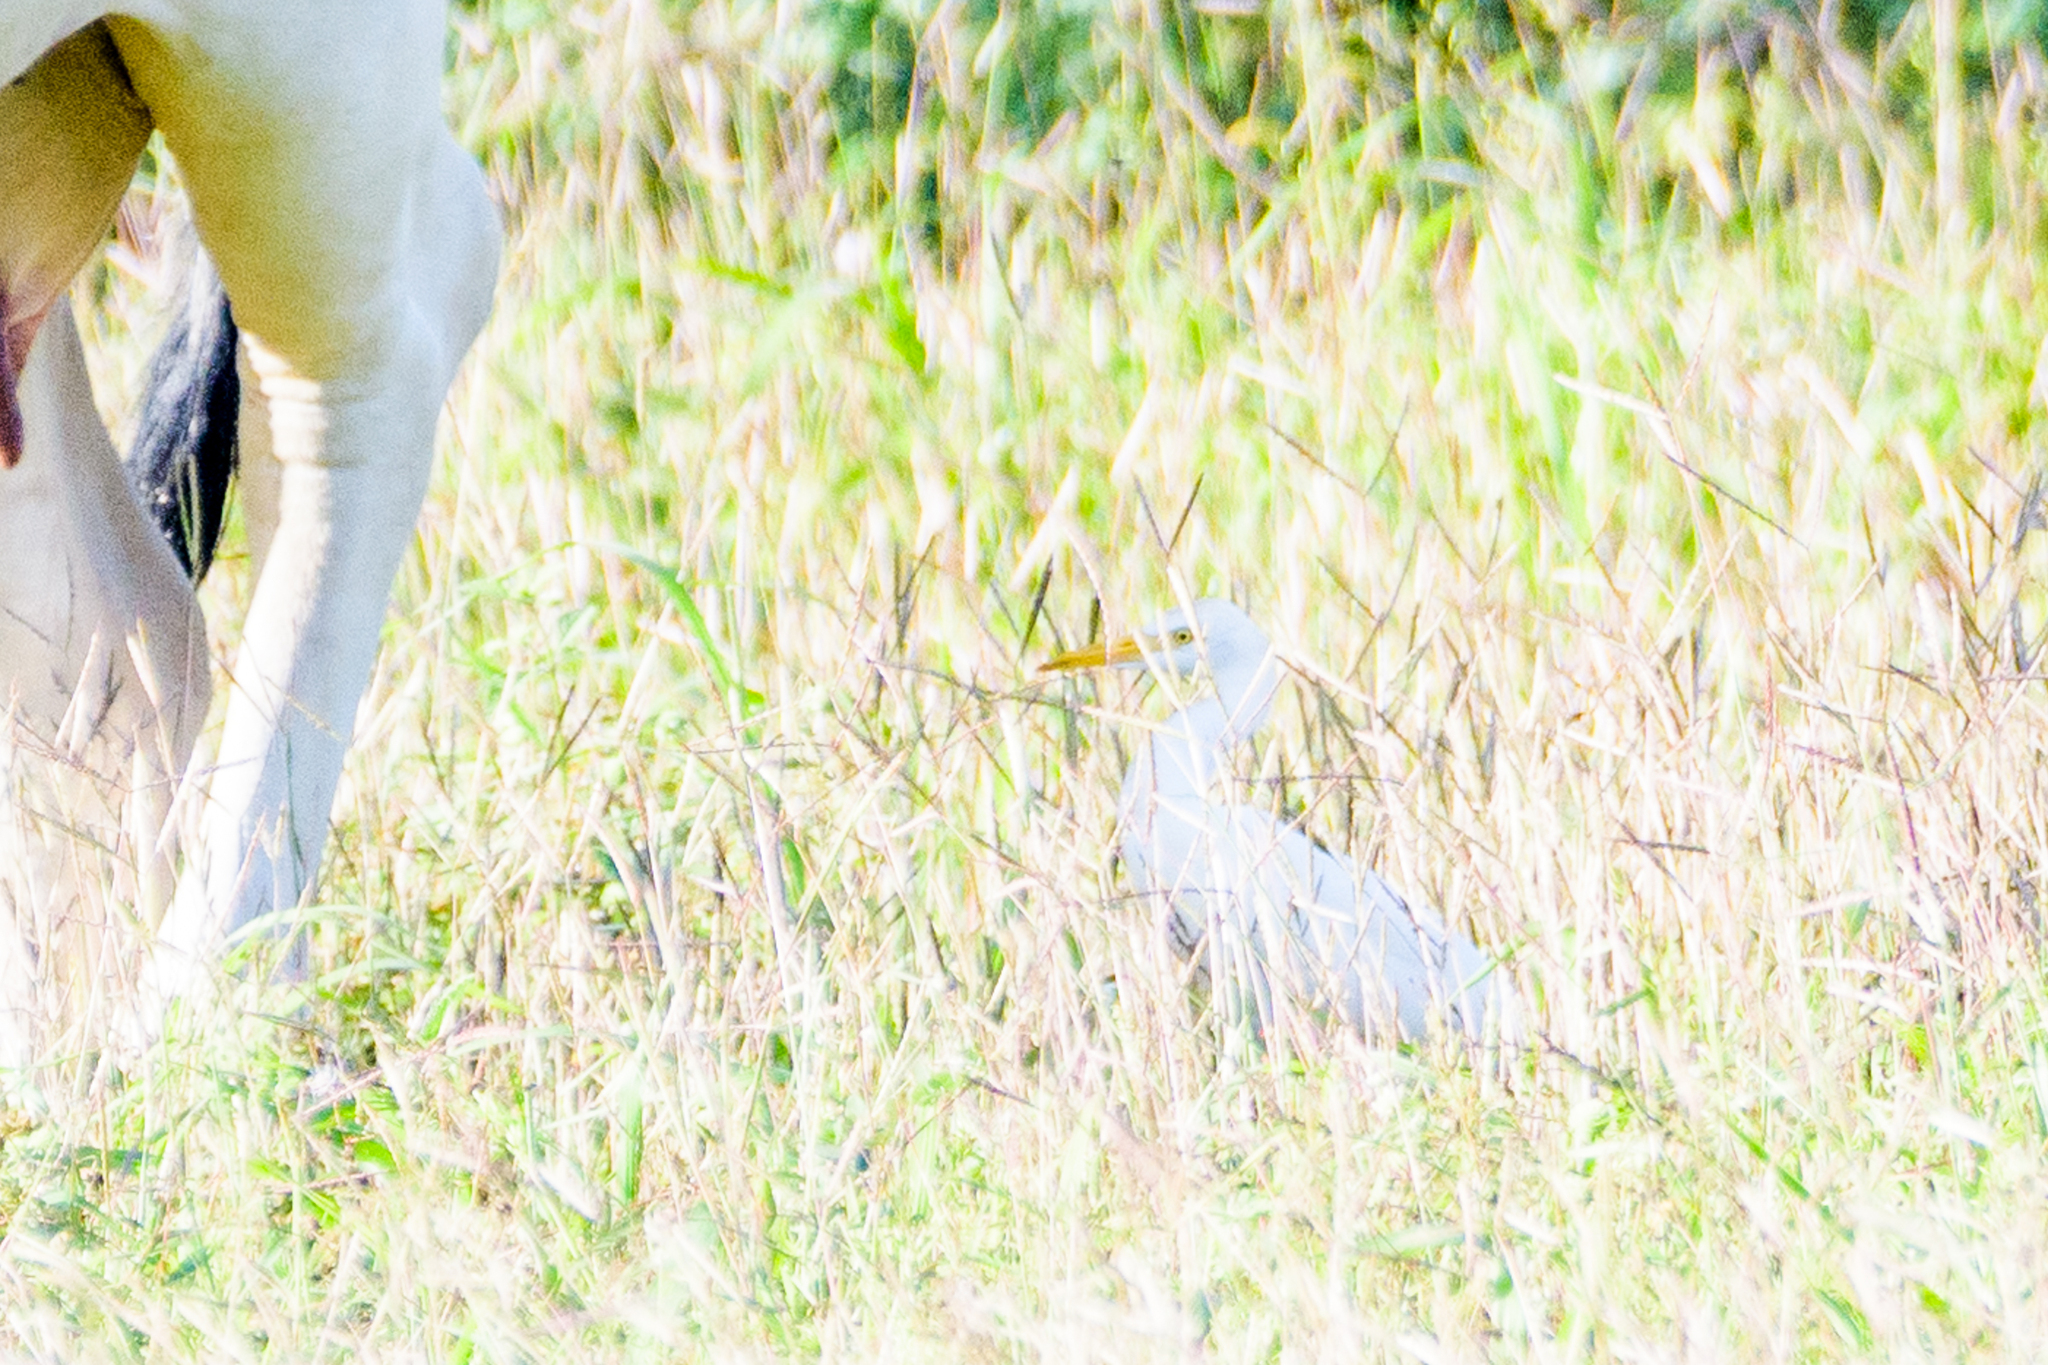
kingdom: Animalia
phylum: Chordata
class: Aves
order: Pelecaniformes
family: Ardeidae
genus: Bubulcus
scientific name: Bubulcus ibis
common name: Cattle egret
